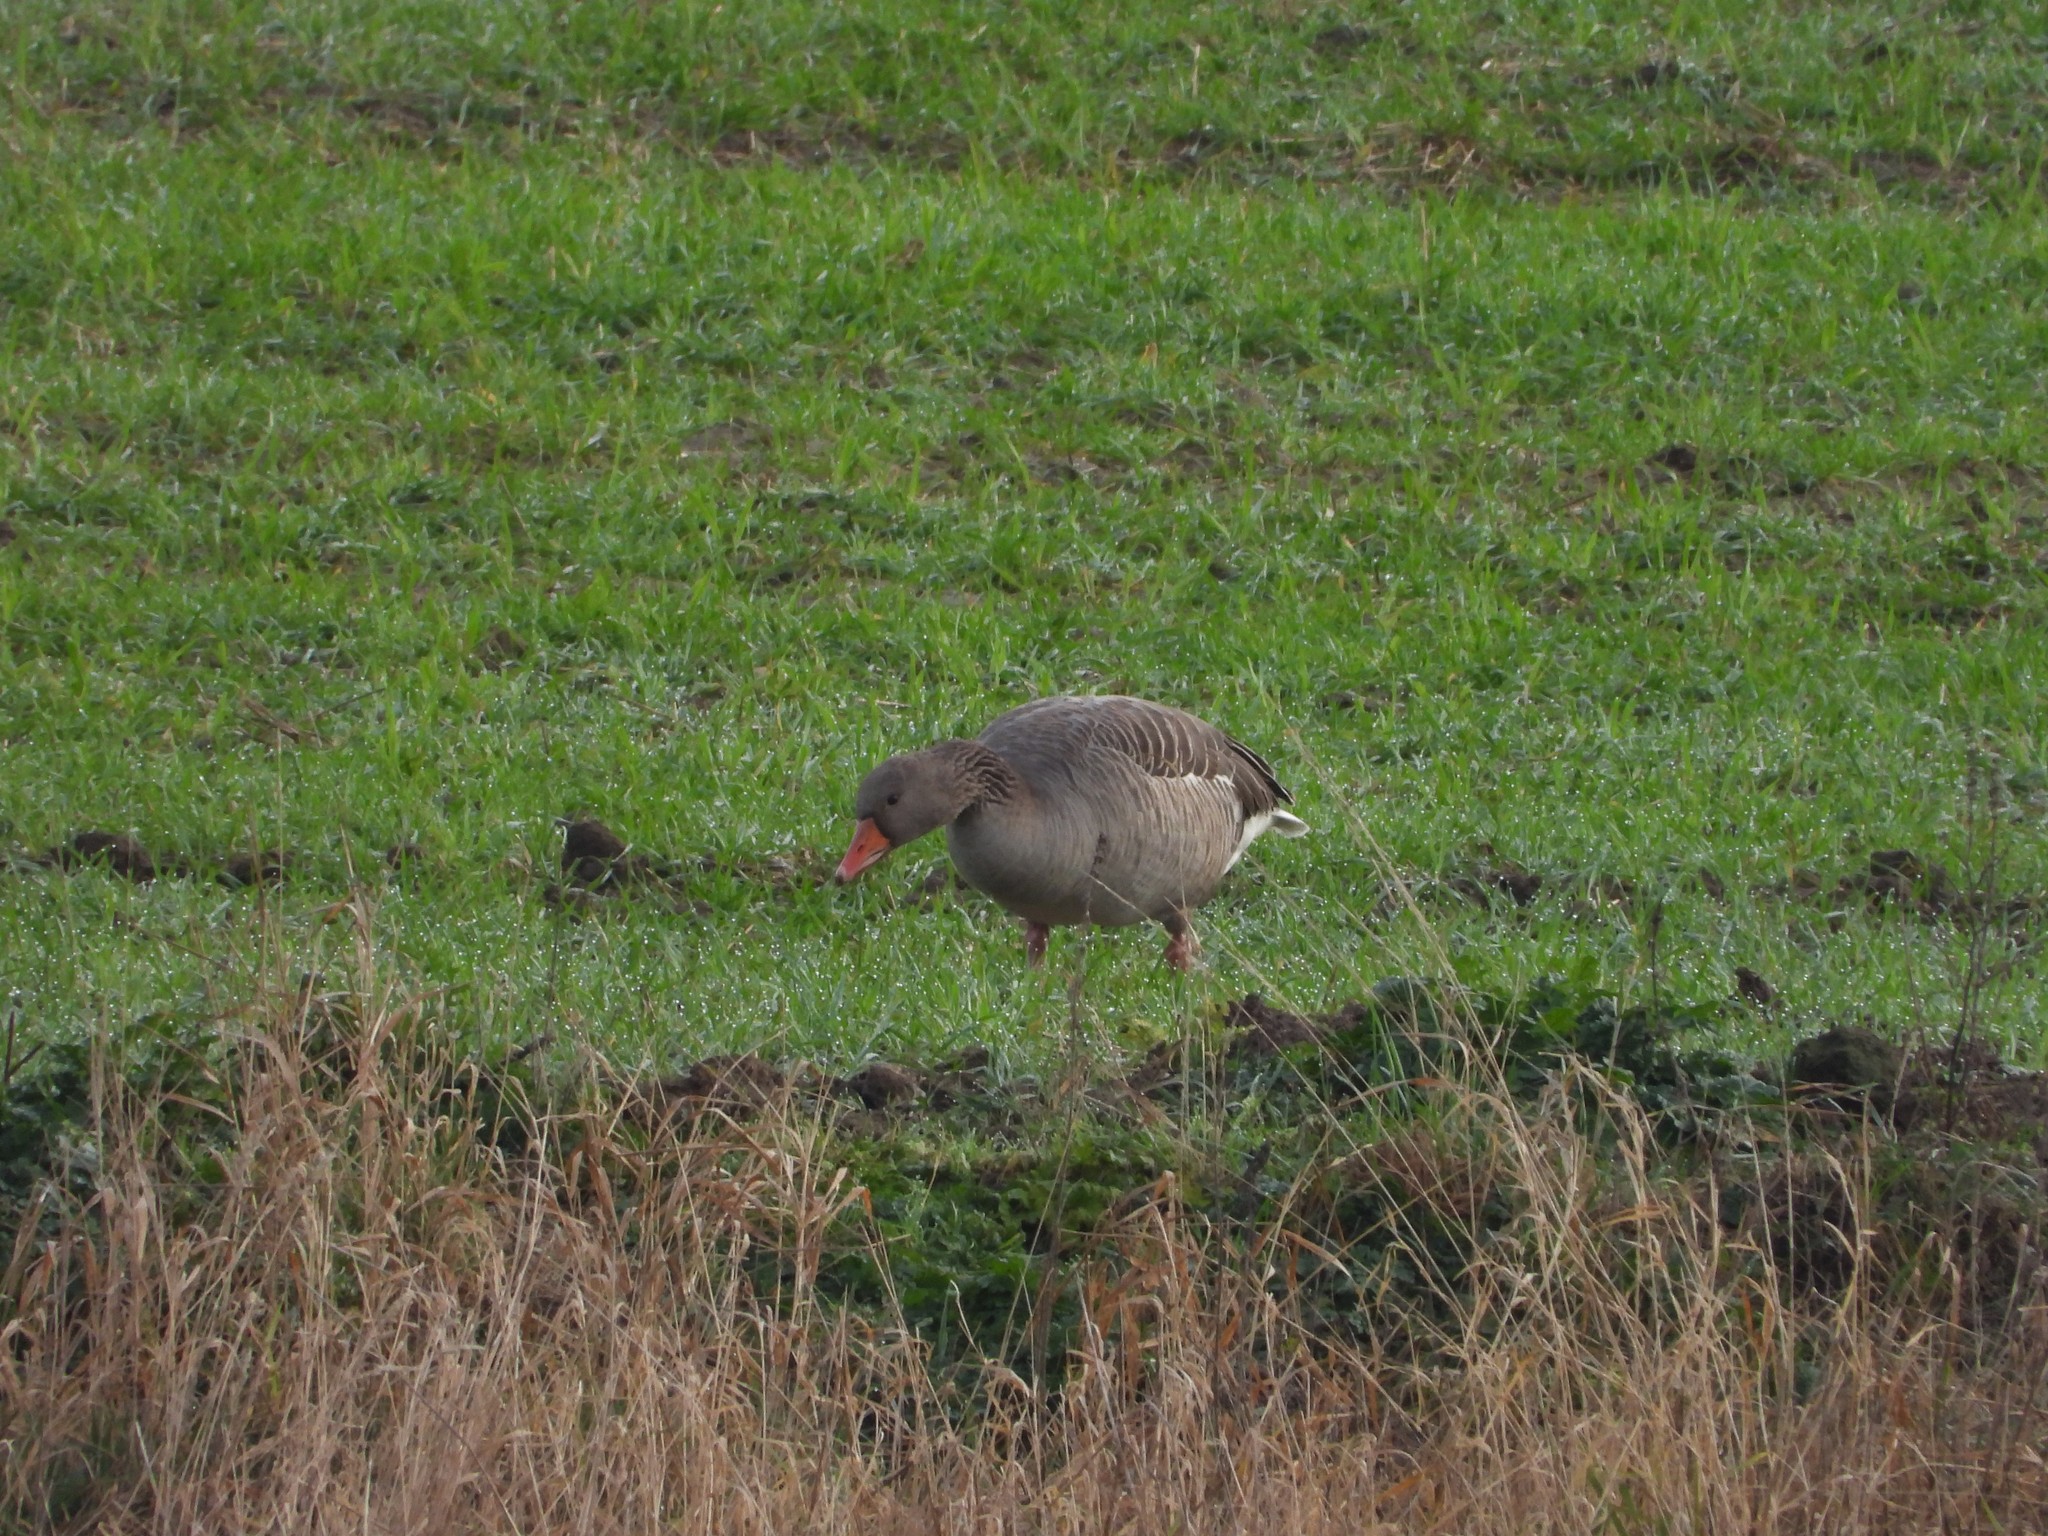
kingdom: Animalia
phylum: Chordata
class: Aves
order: Anseriformes
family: Anatidae
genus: Anser
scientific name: Anser anser
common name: Greylag goose
